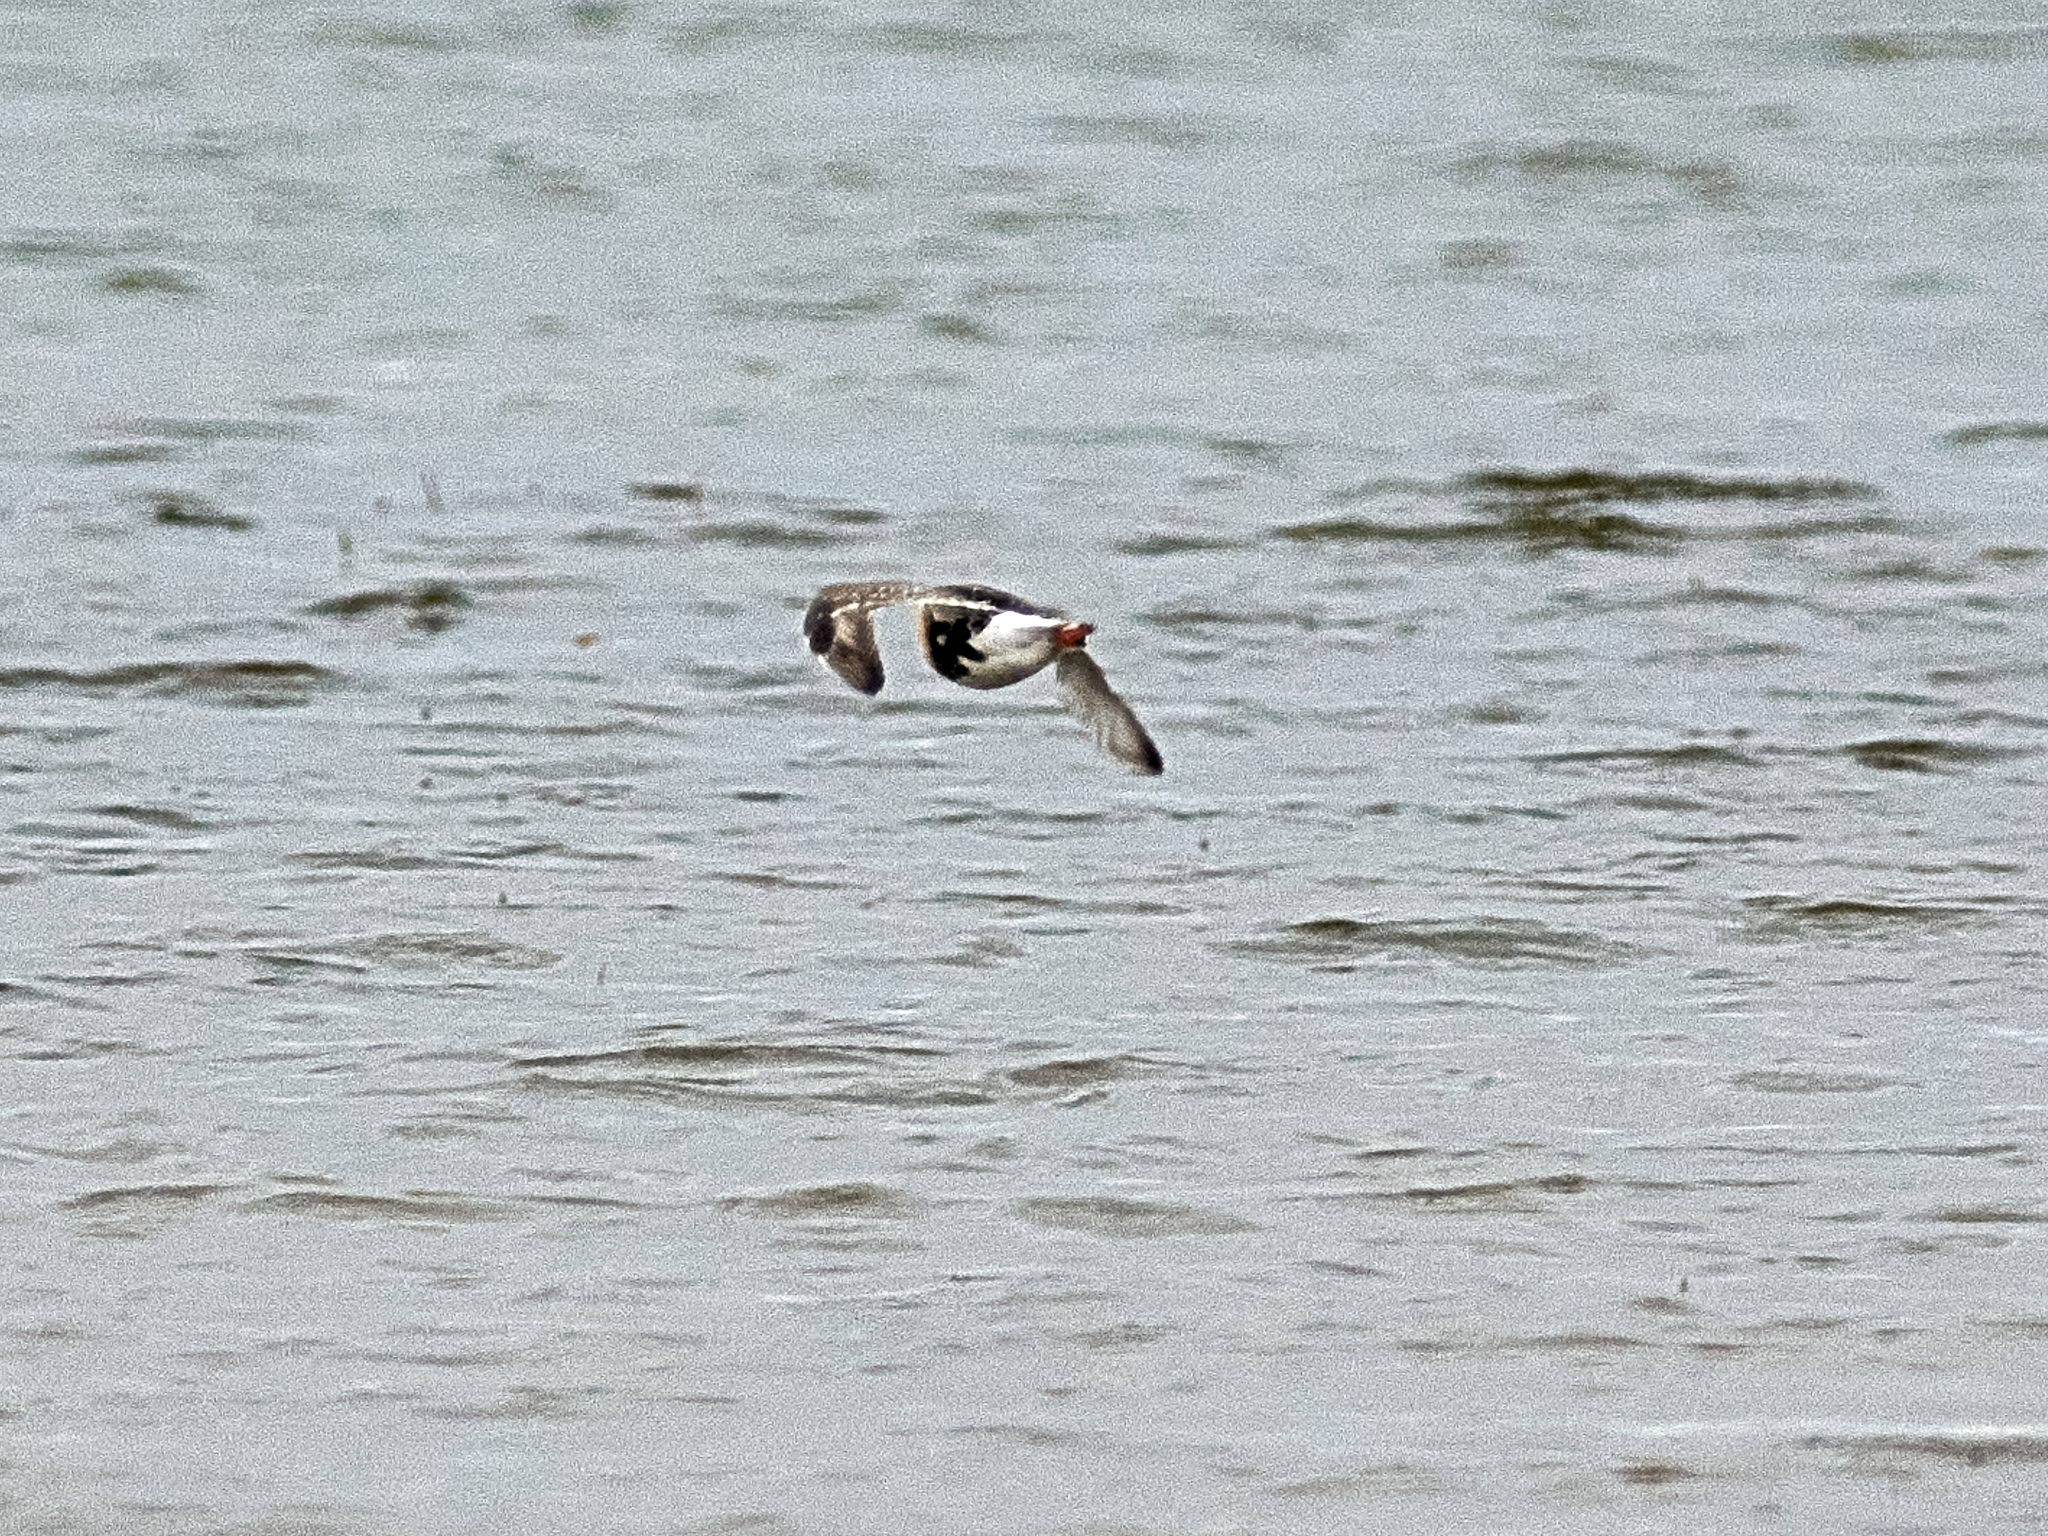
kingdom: Animalia
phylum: Chordata
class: Aves
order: Charadriiformes
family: Scolopacidae
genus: Calidris
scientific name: Calidris pugnax
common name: Ruff
